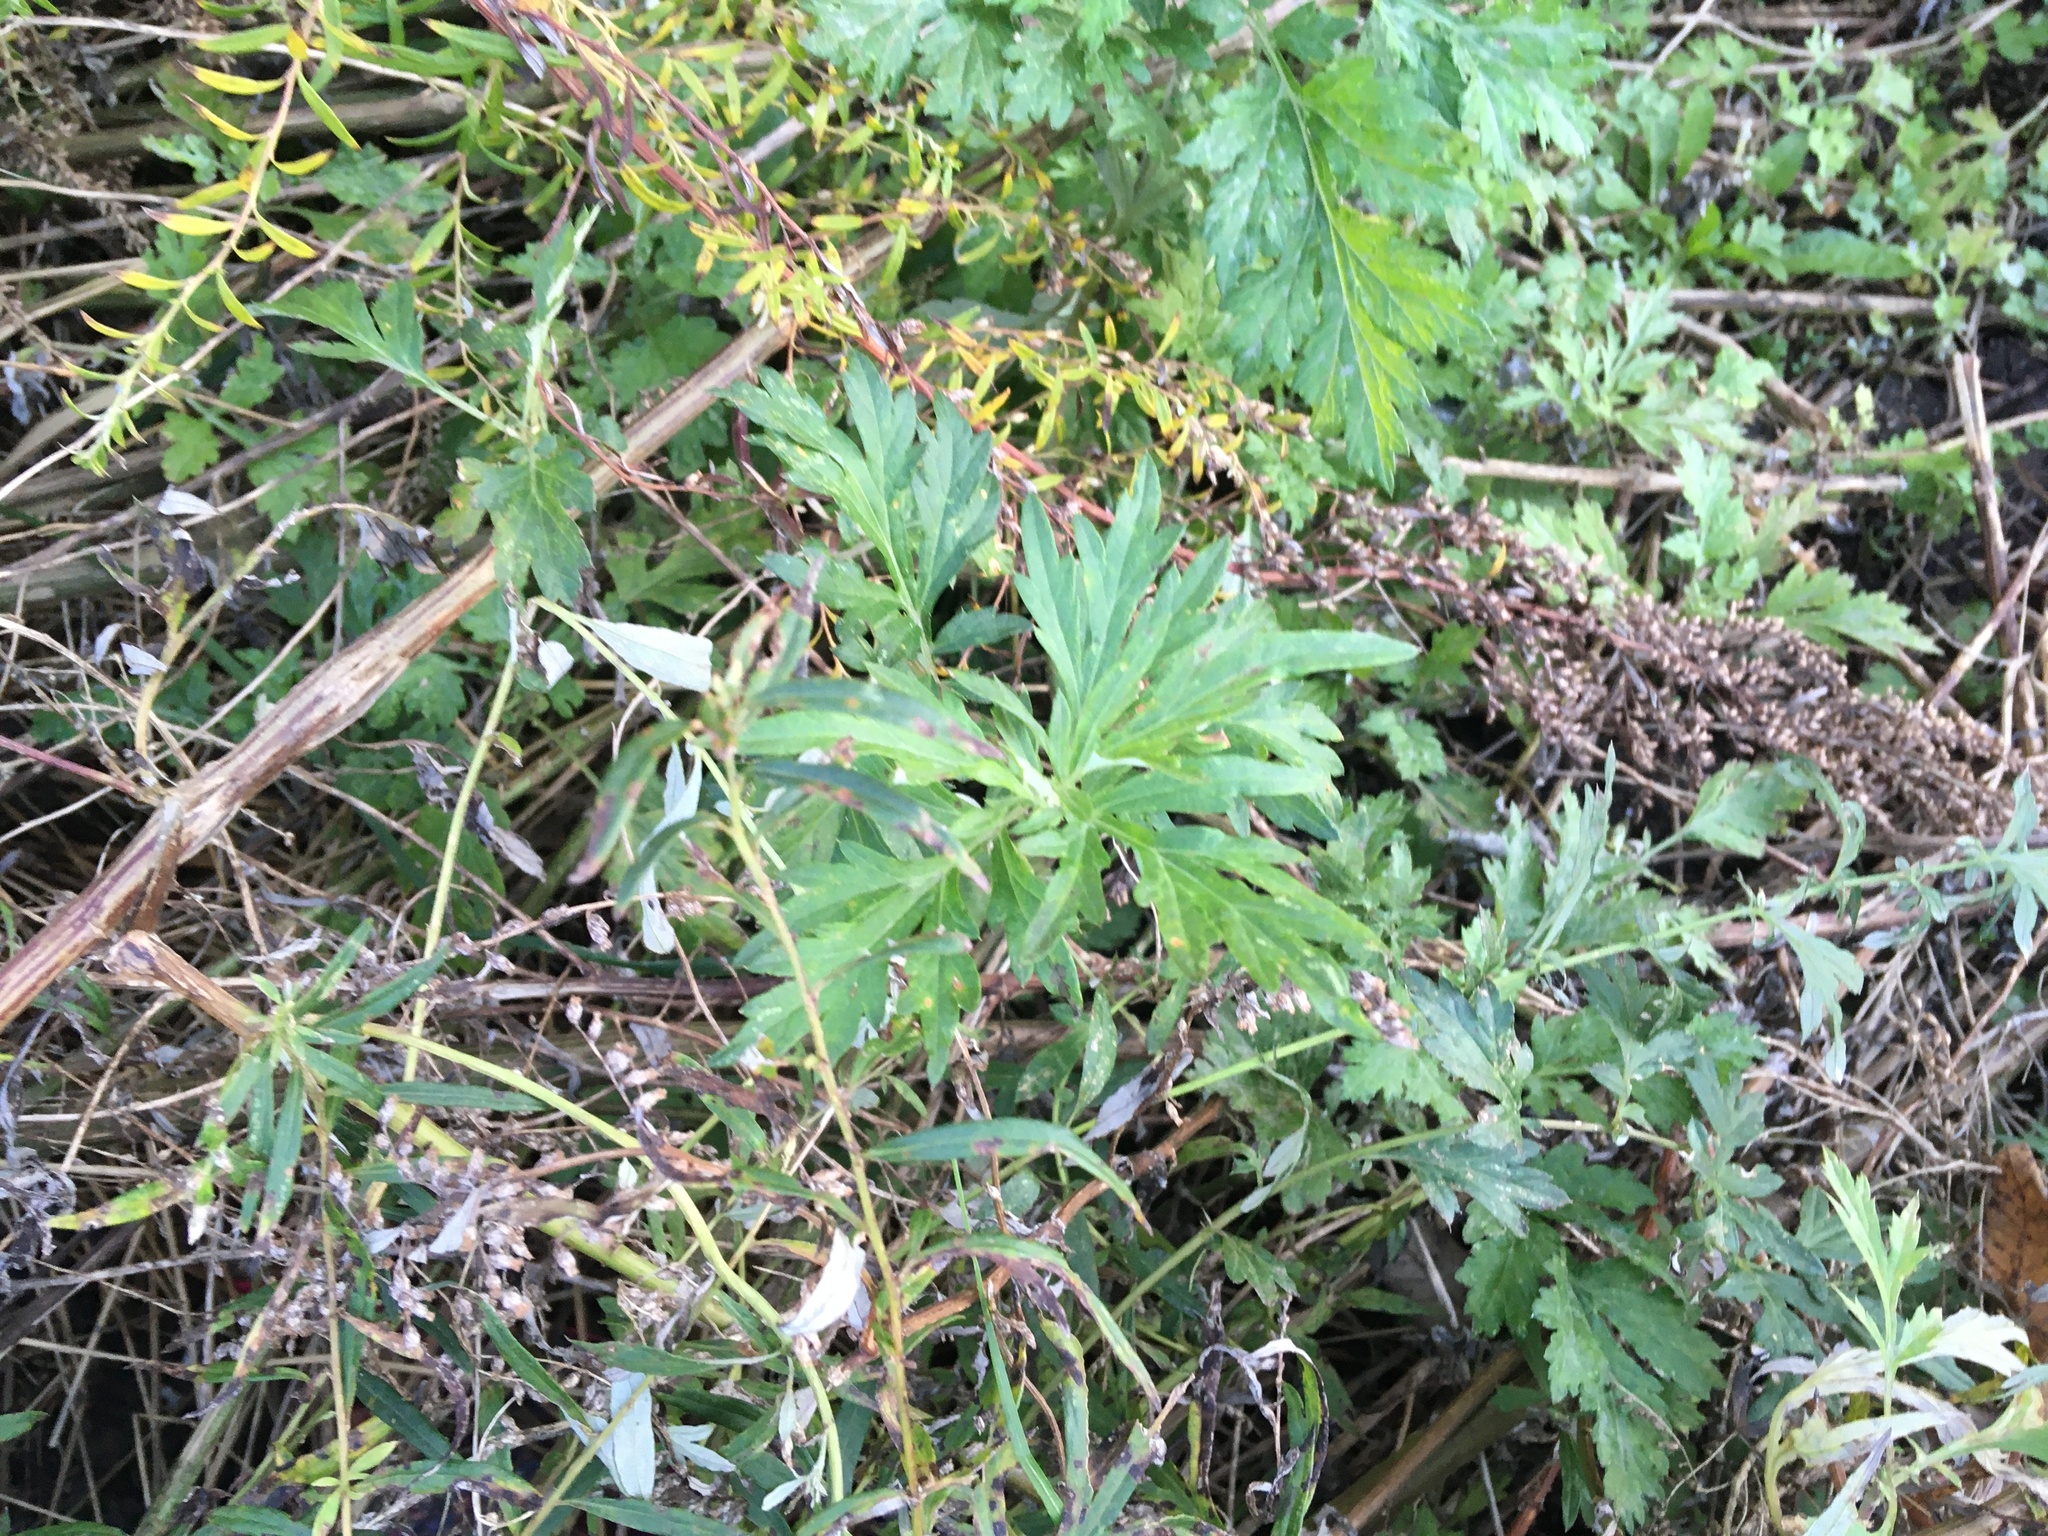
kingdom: Plantae
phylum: Tracheophyta
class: Magnoliopsida
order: Asterales
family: Asteraceae
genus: Artemisia
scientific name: Artemisia vulgaris
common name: Mugwort
